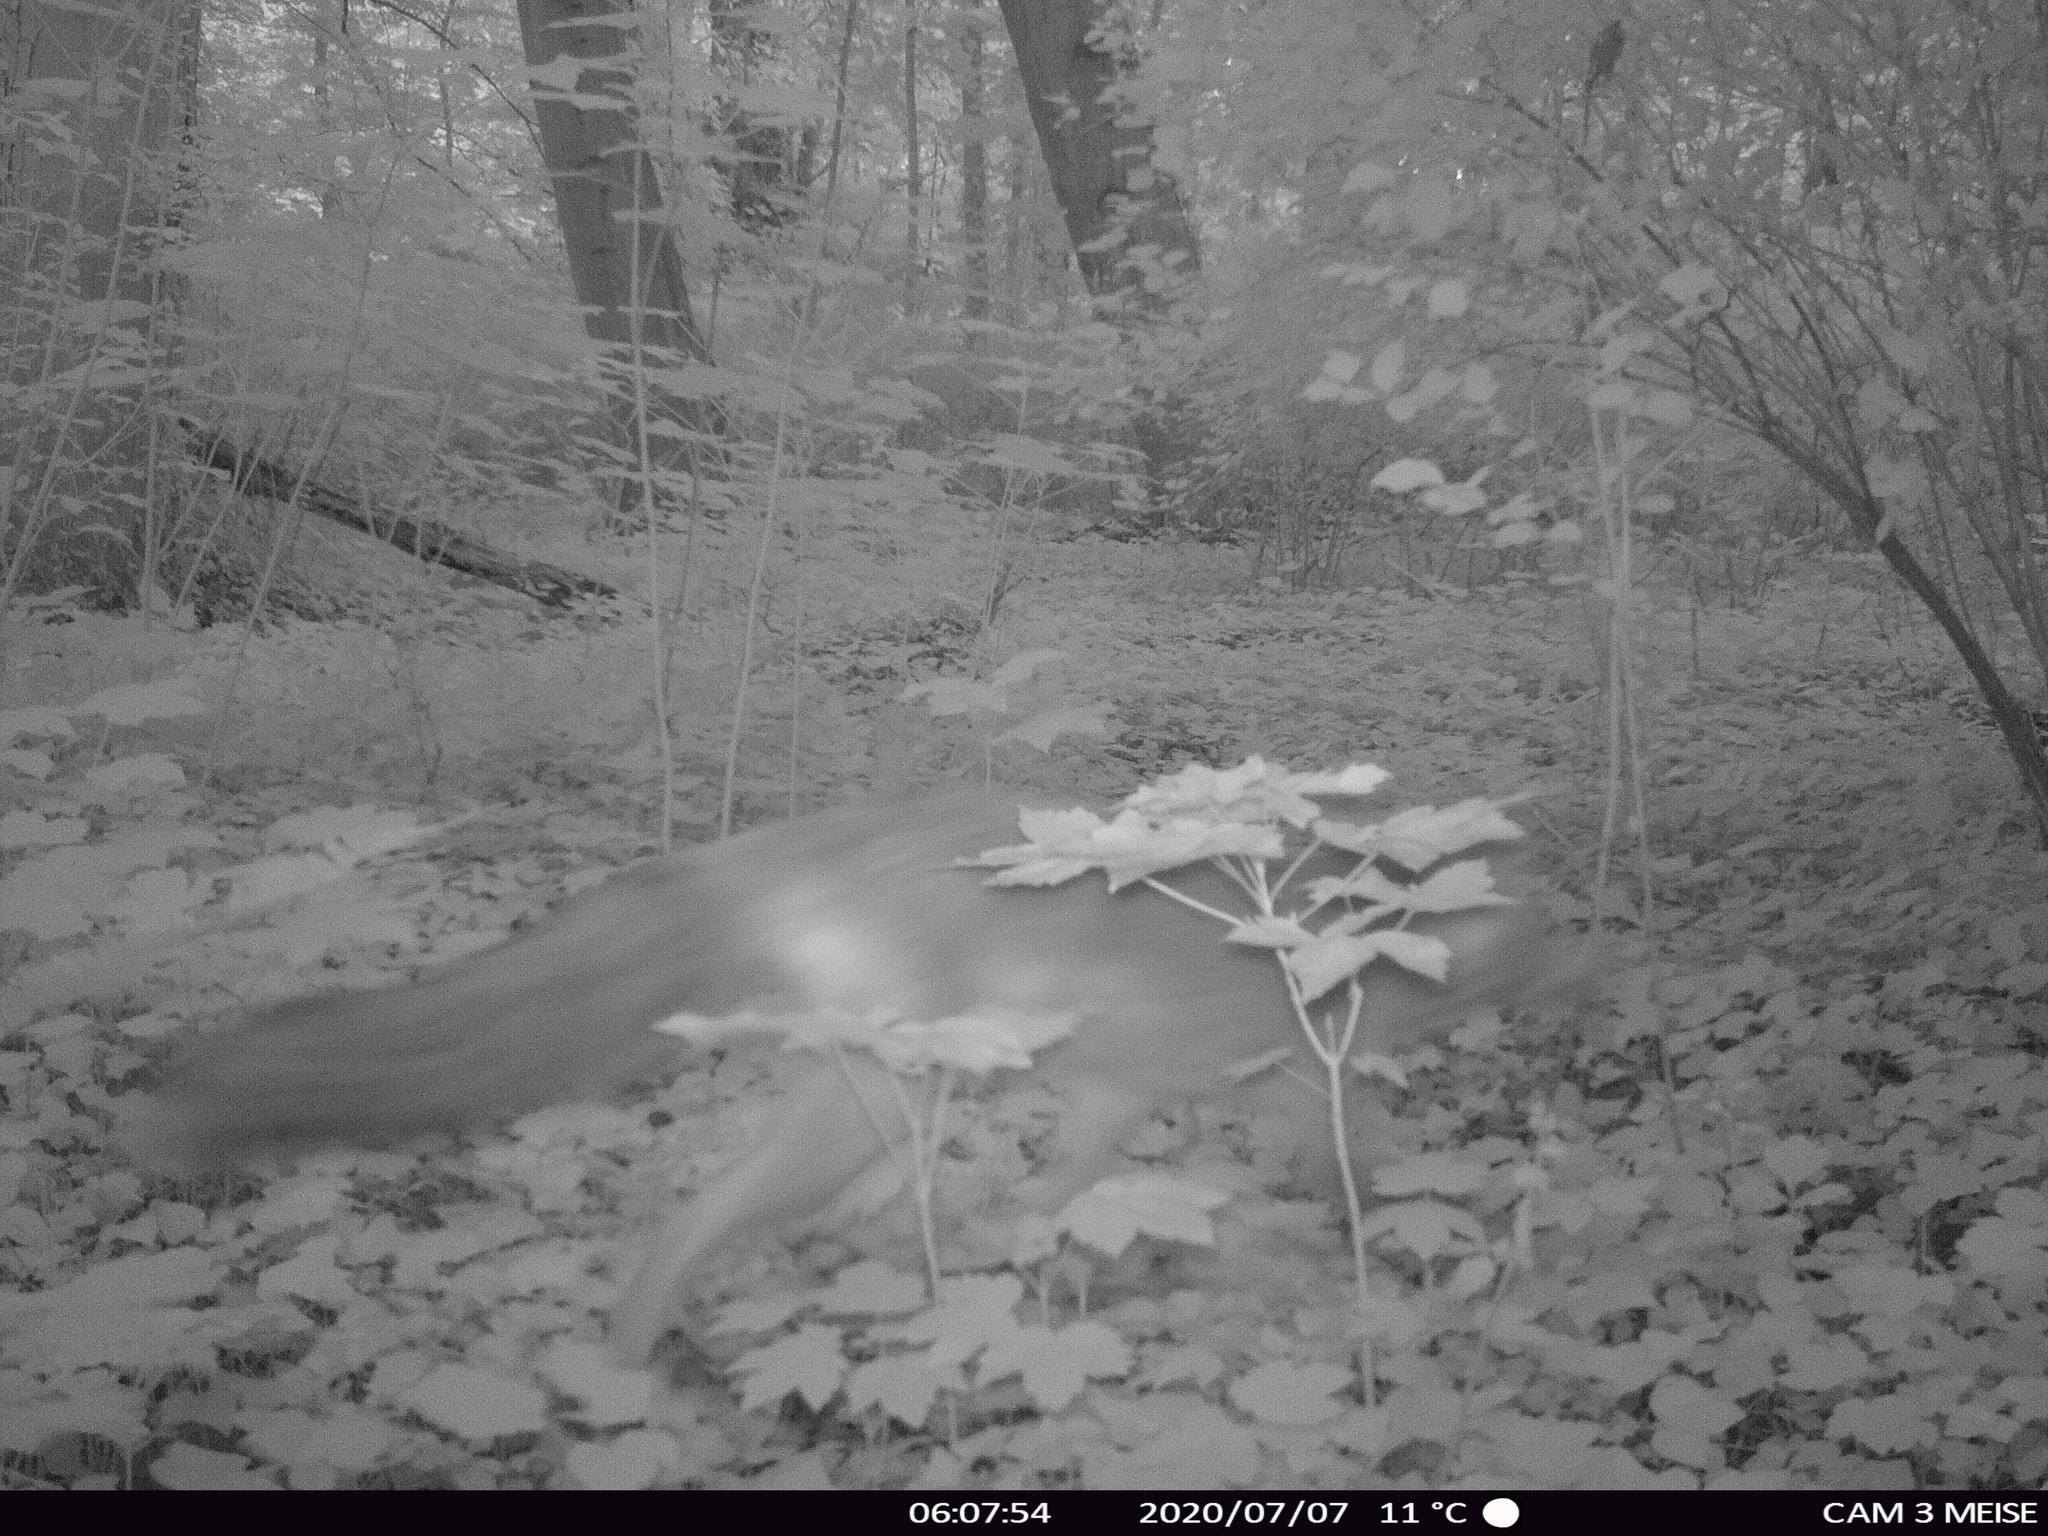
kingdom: Animalia
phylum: Chordata
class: Mammalia
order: Carnivora
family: Canidae
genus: Vulpes
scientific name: Vulpes vulpes
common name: Red fox
